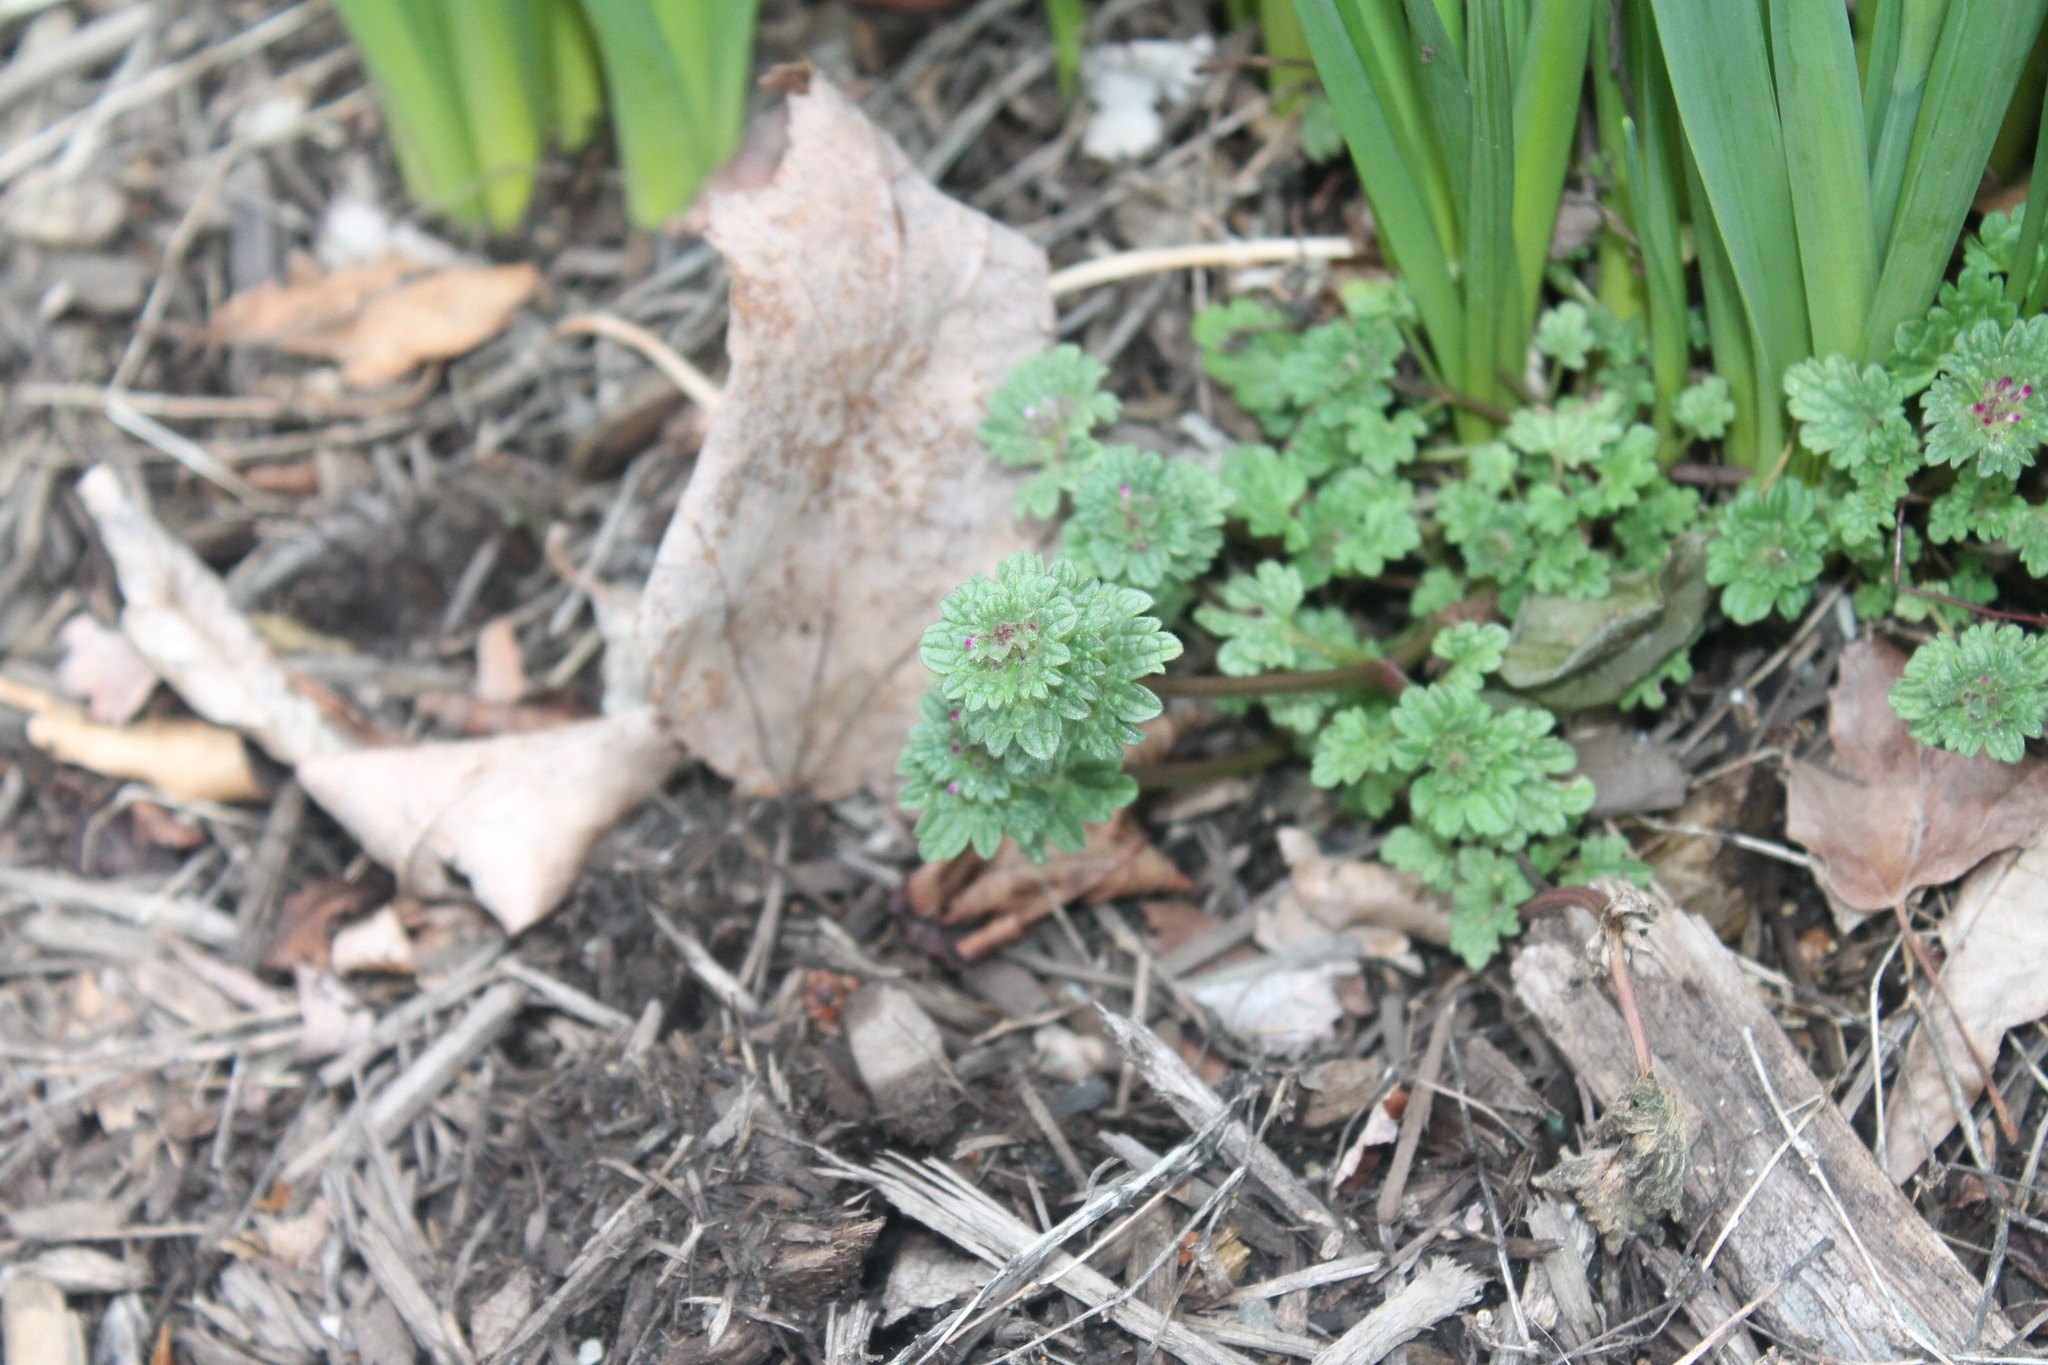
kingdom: Plantae
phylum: Tracheophyta
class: Magnoliopsida
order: Lamiales
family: Lamiaceae
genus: Lamium
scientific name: Lamium amplexicaule
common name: Henbit dead-nettle
